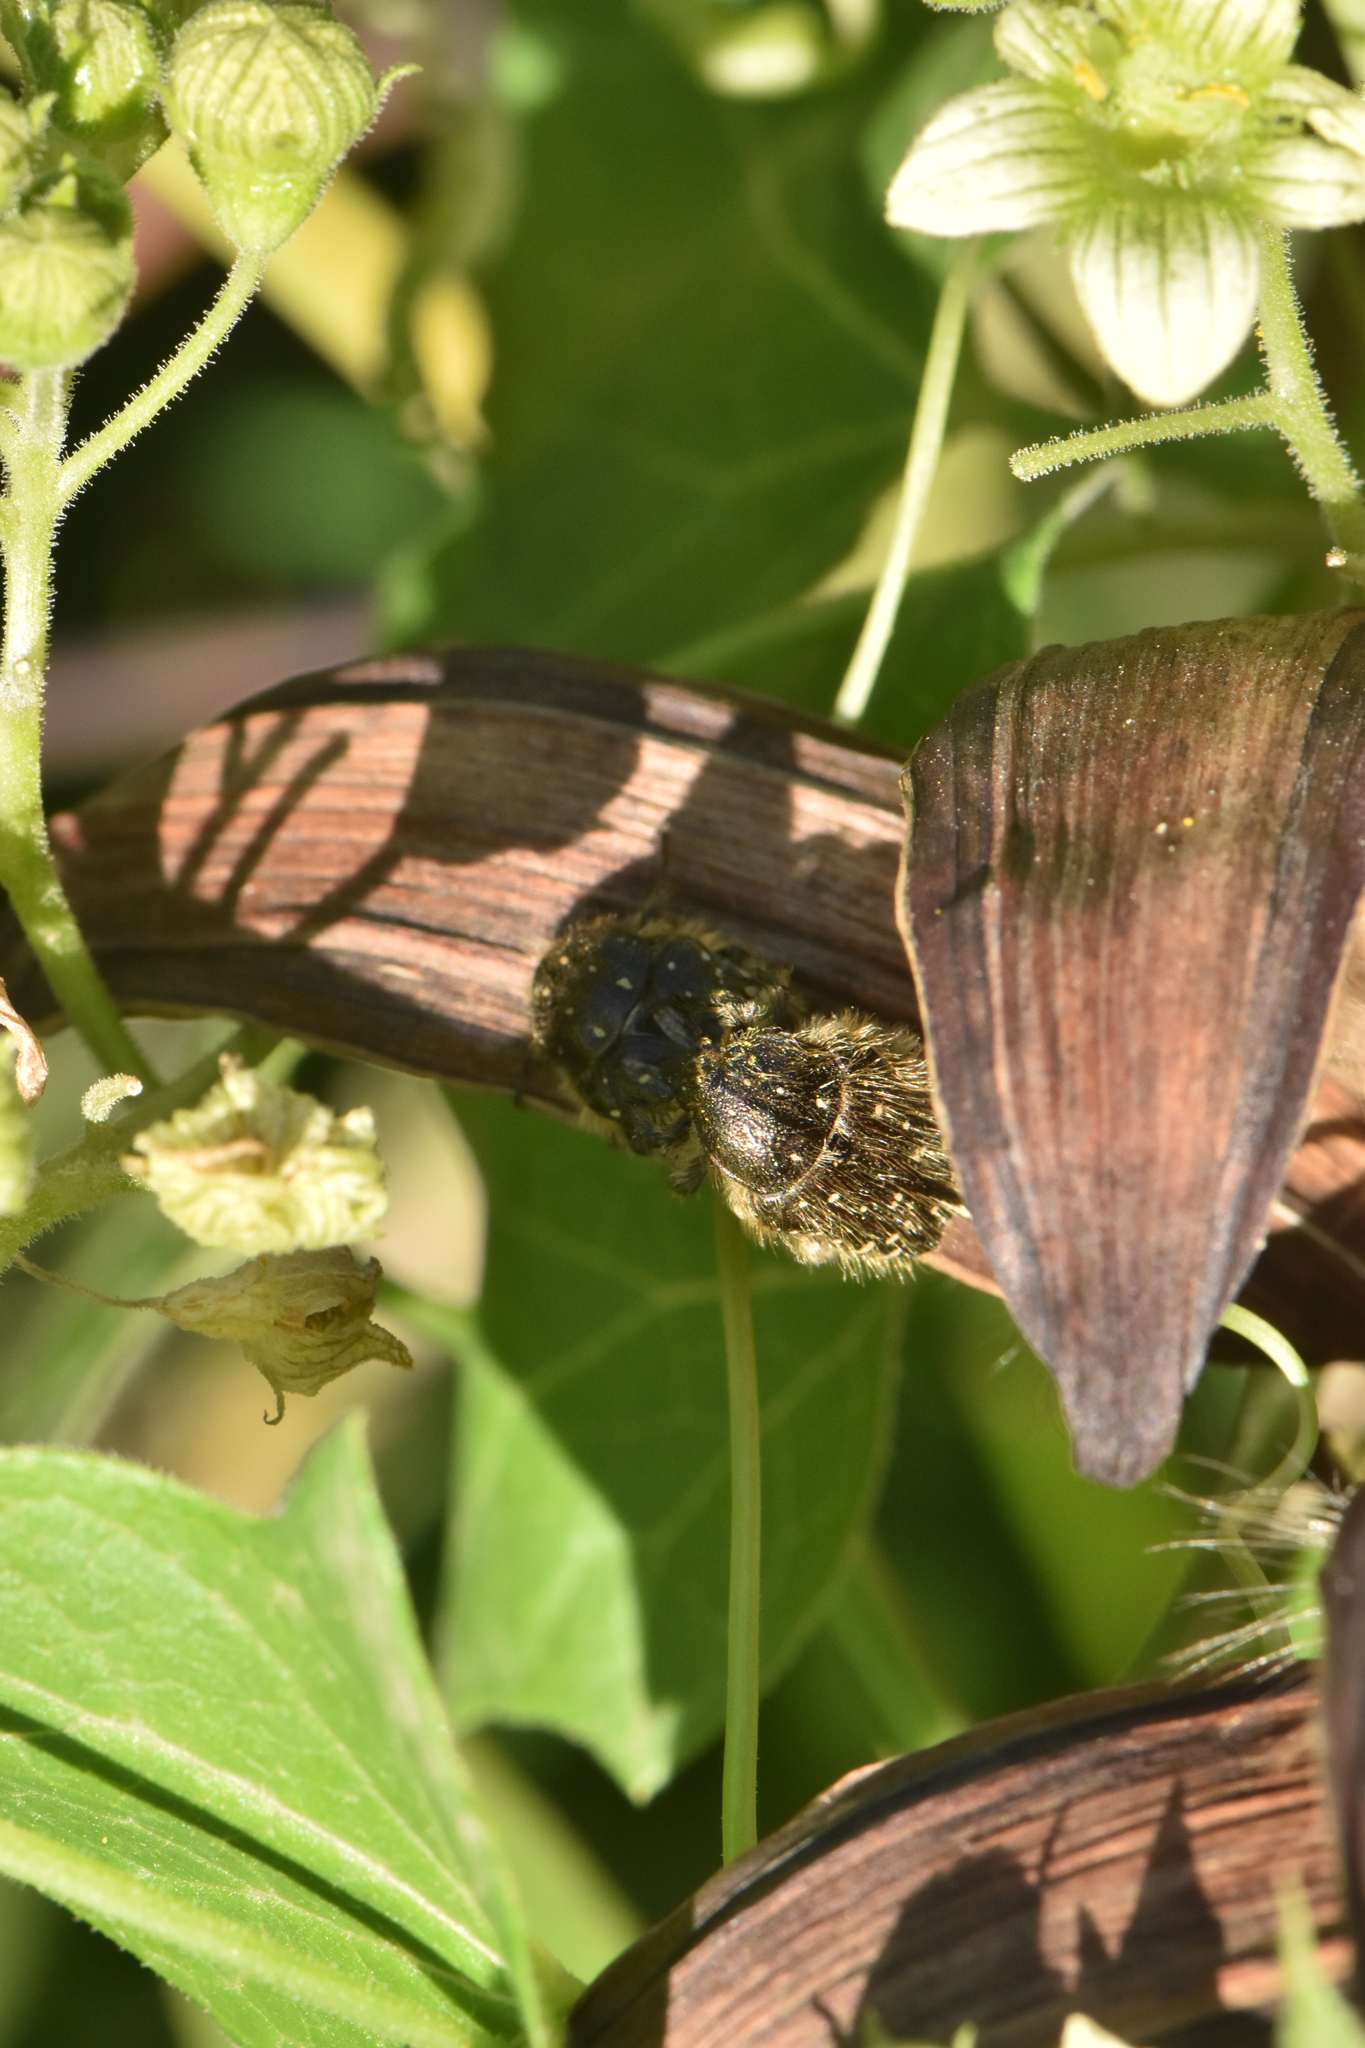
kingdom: Animalia
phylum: Arthropoda
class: Insecta
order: Coleoptera
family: Scarabaeidae
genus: Oxythyrea
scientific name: Oxythyrea funesta
